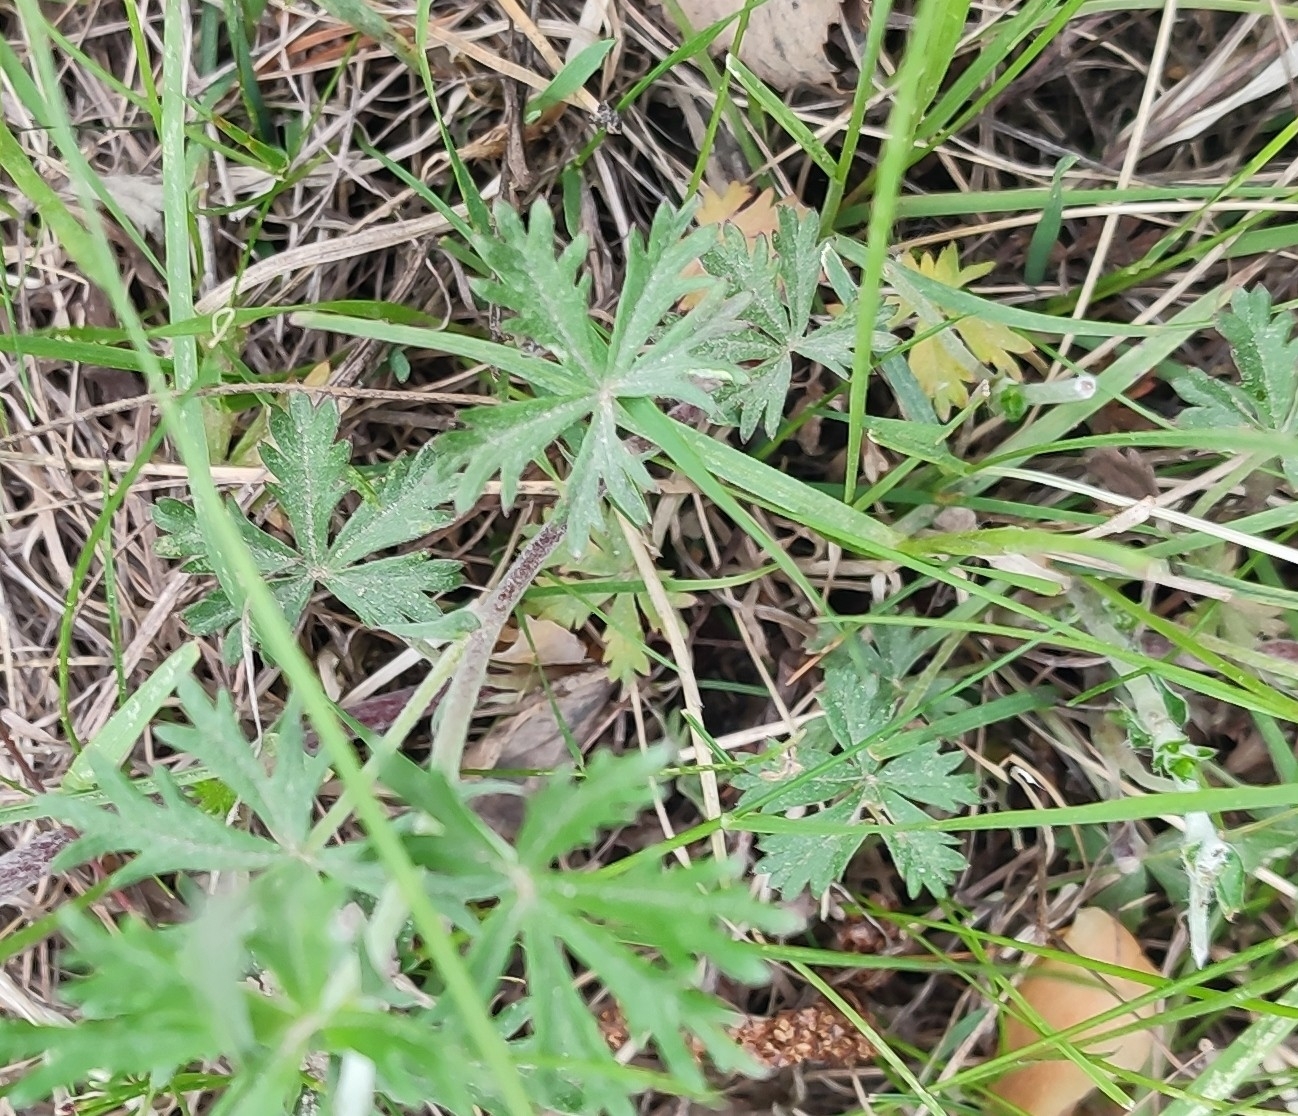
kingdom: Plantae
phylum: Tracheophyta
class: Magnoliopsida
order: Rosales
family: Rosaceae
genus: Potentilla
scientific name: Potentilla argentea
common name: Hoary cinquefoil
